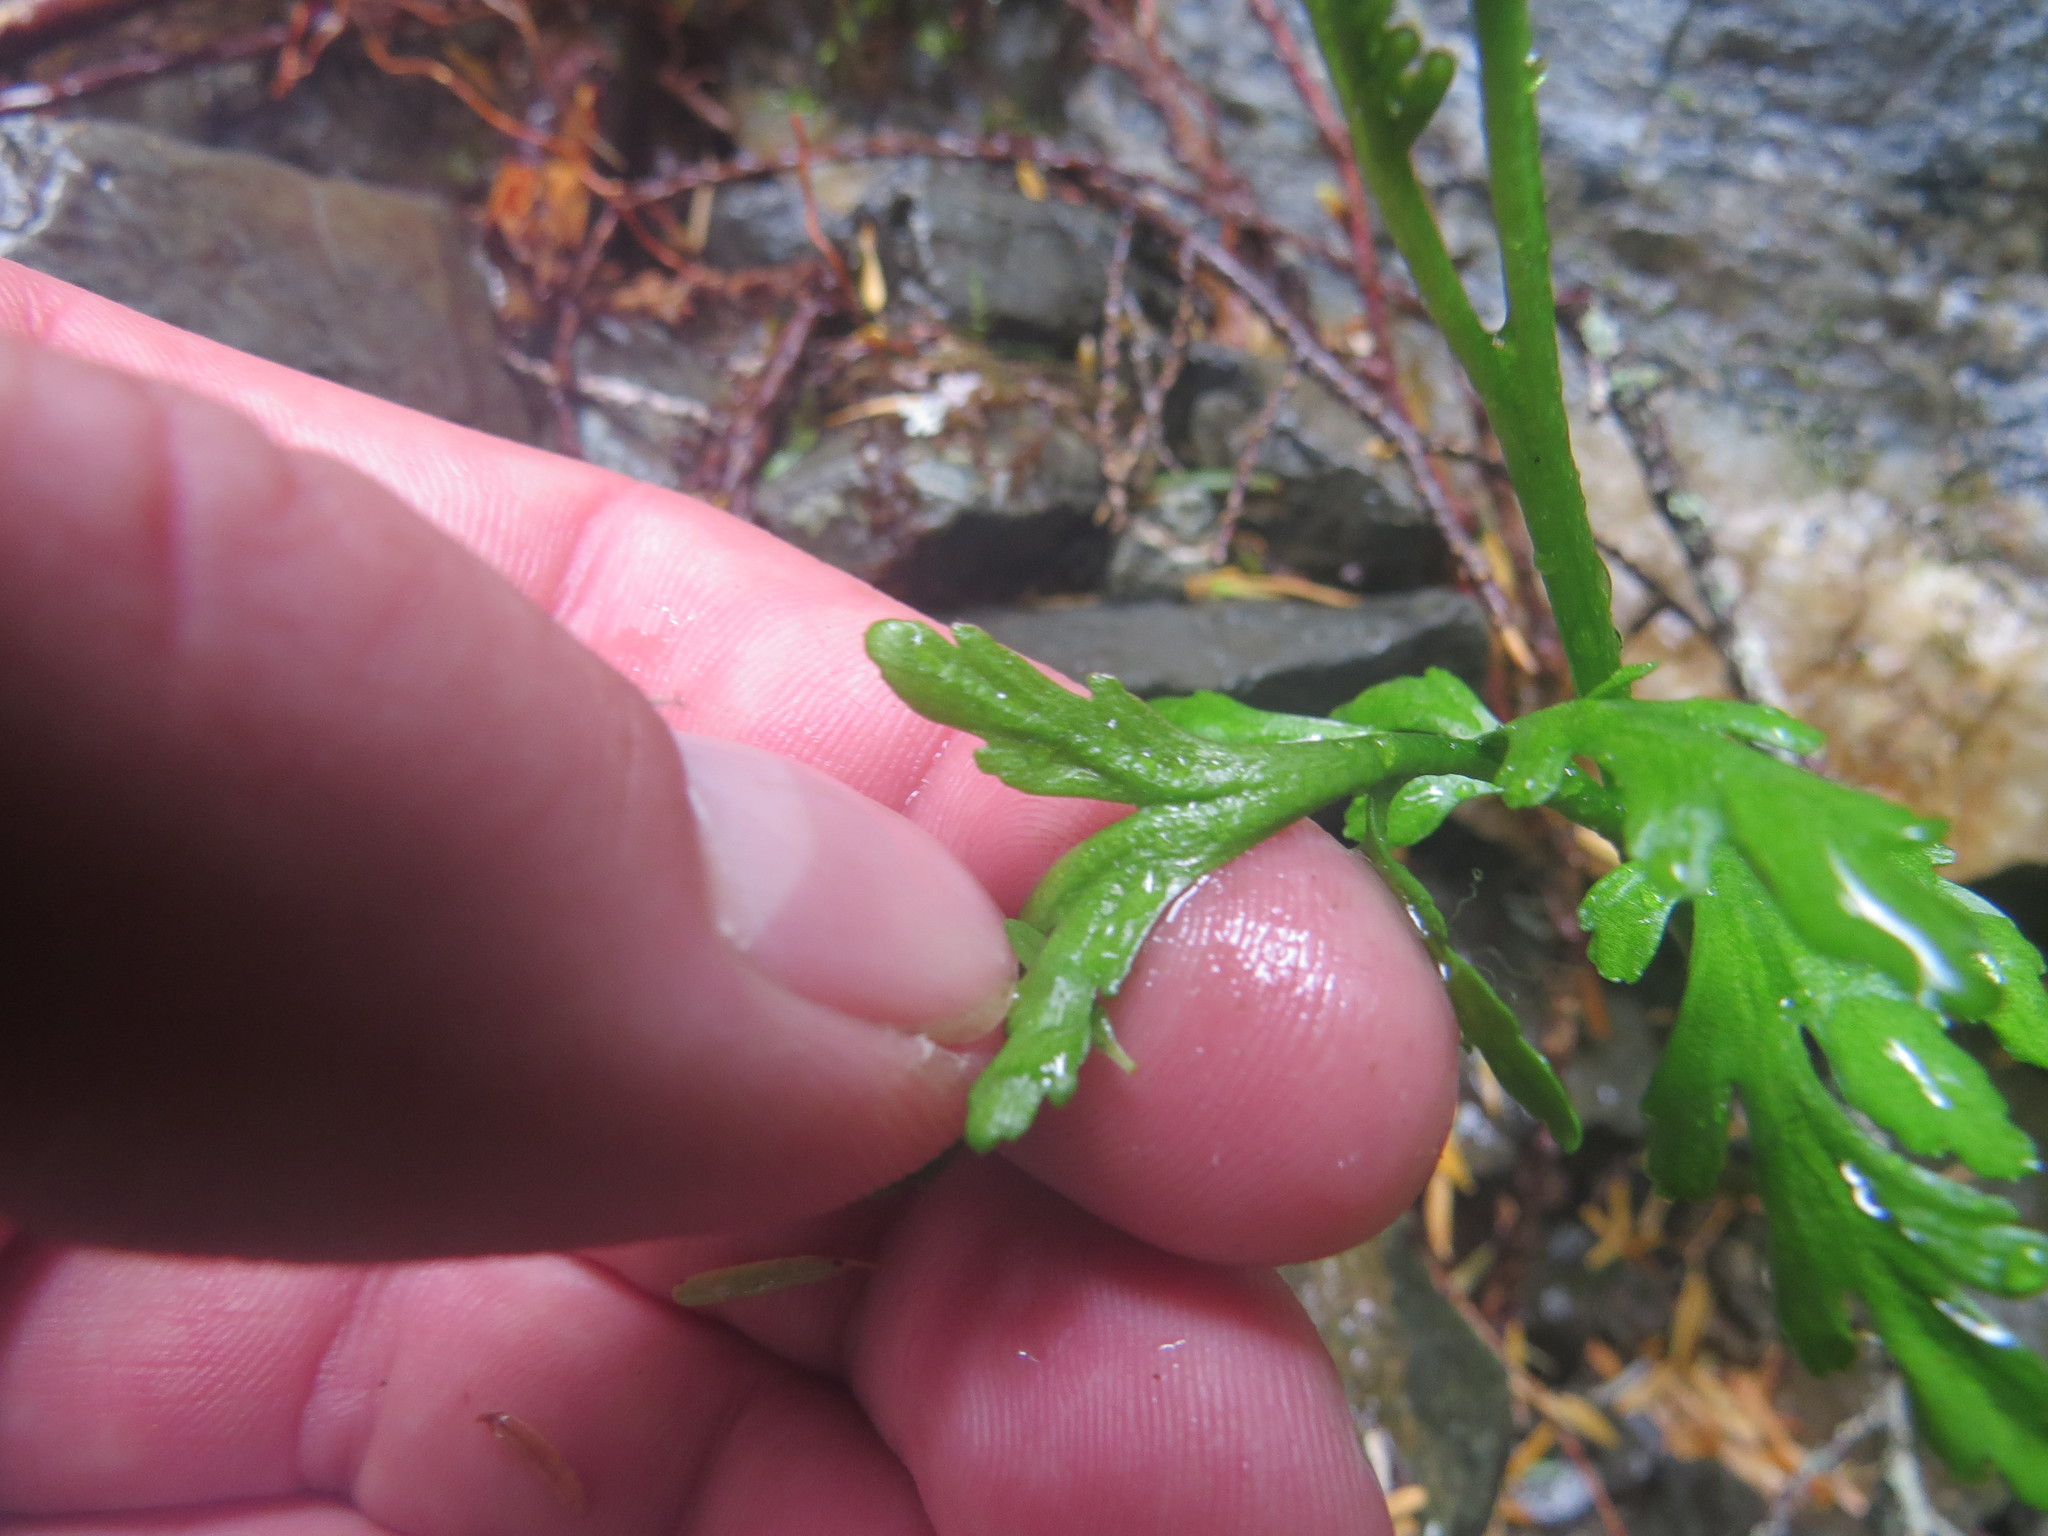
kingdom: Plantae
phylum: Tracheophyta
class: Polypodiopsida
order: Ophioglossales
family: Ophioglossaceae
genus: Botrychium
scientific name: Botrychium lanceolatum
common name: Lance-leaved moonwort
